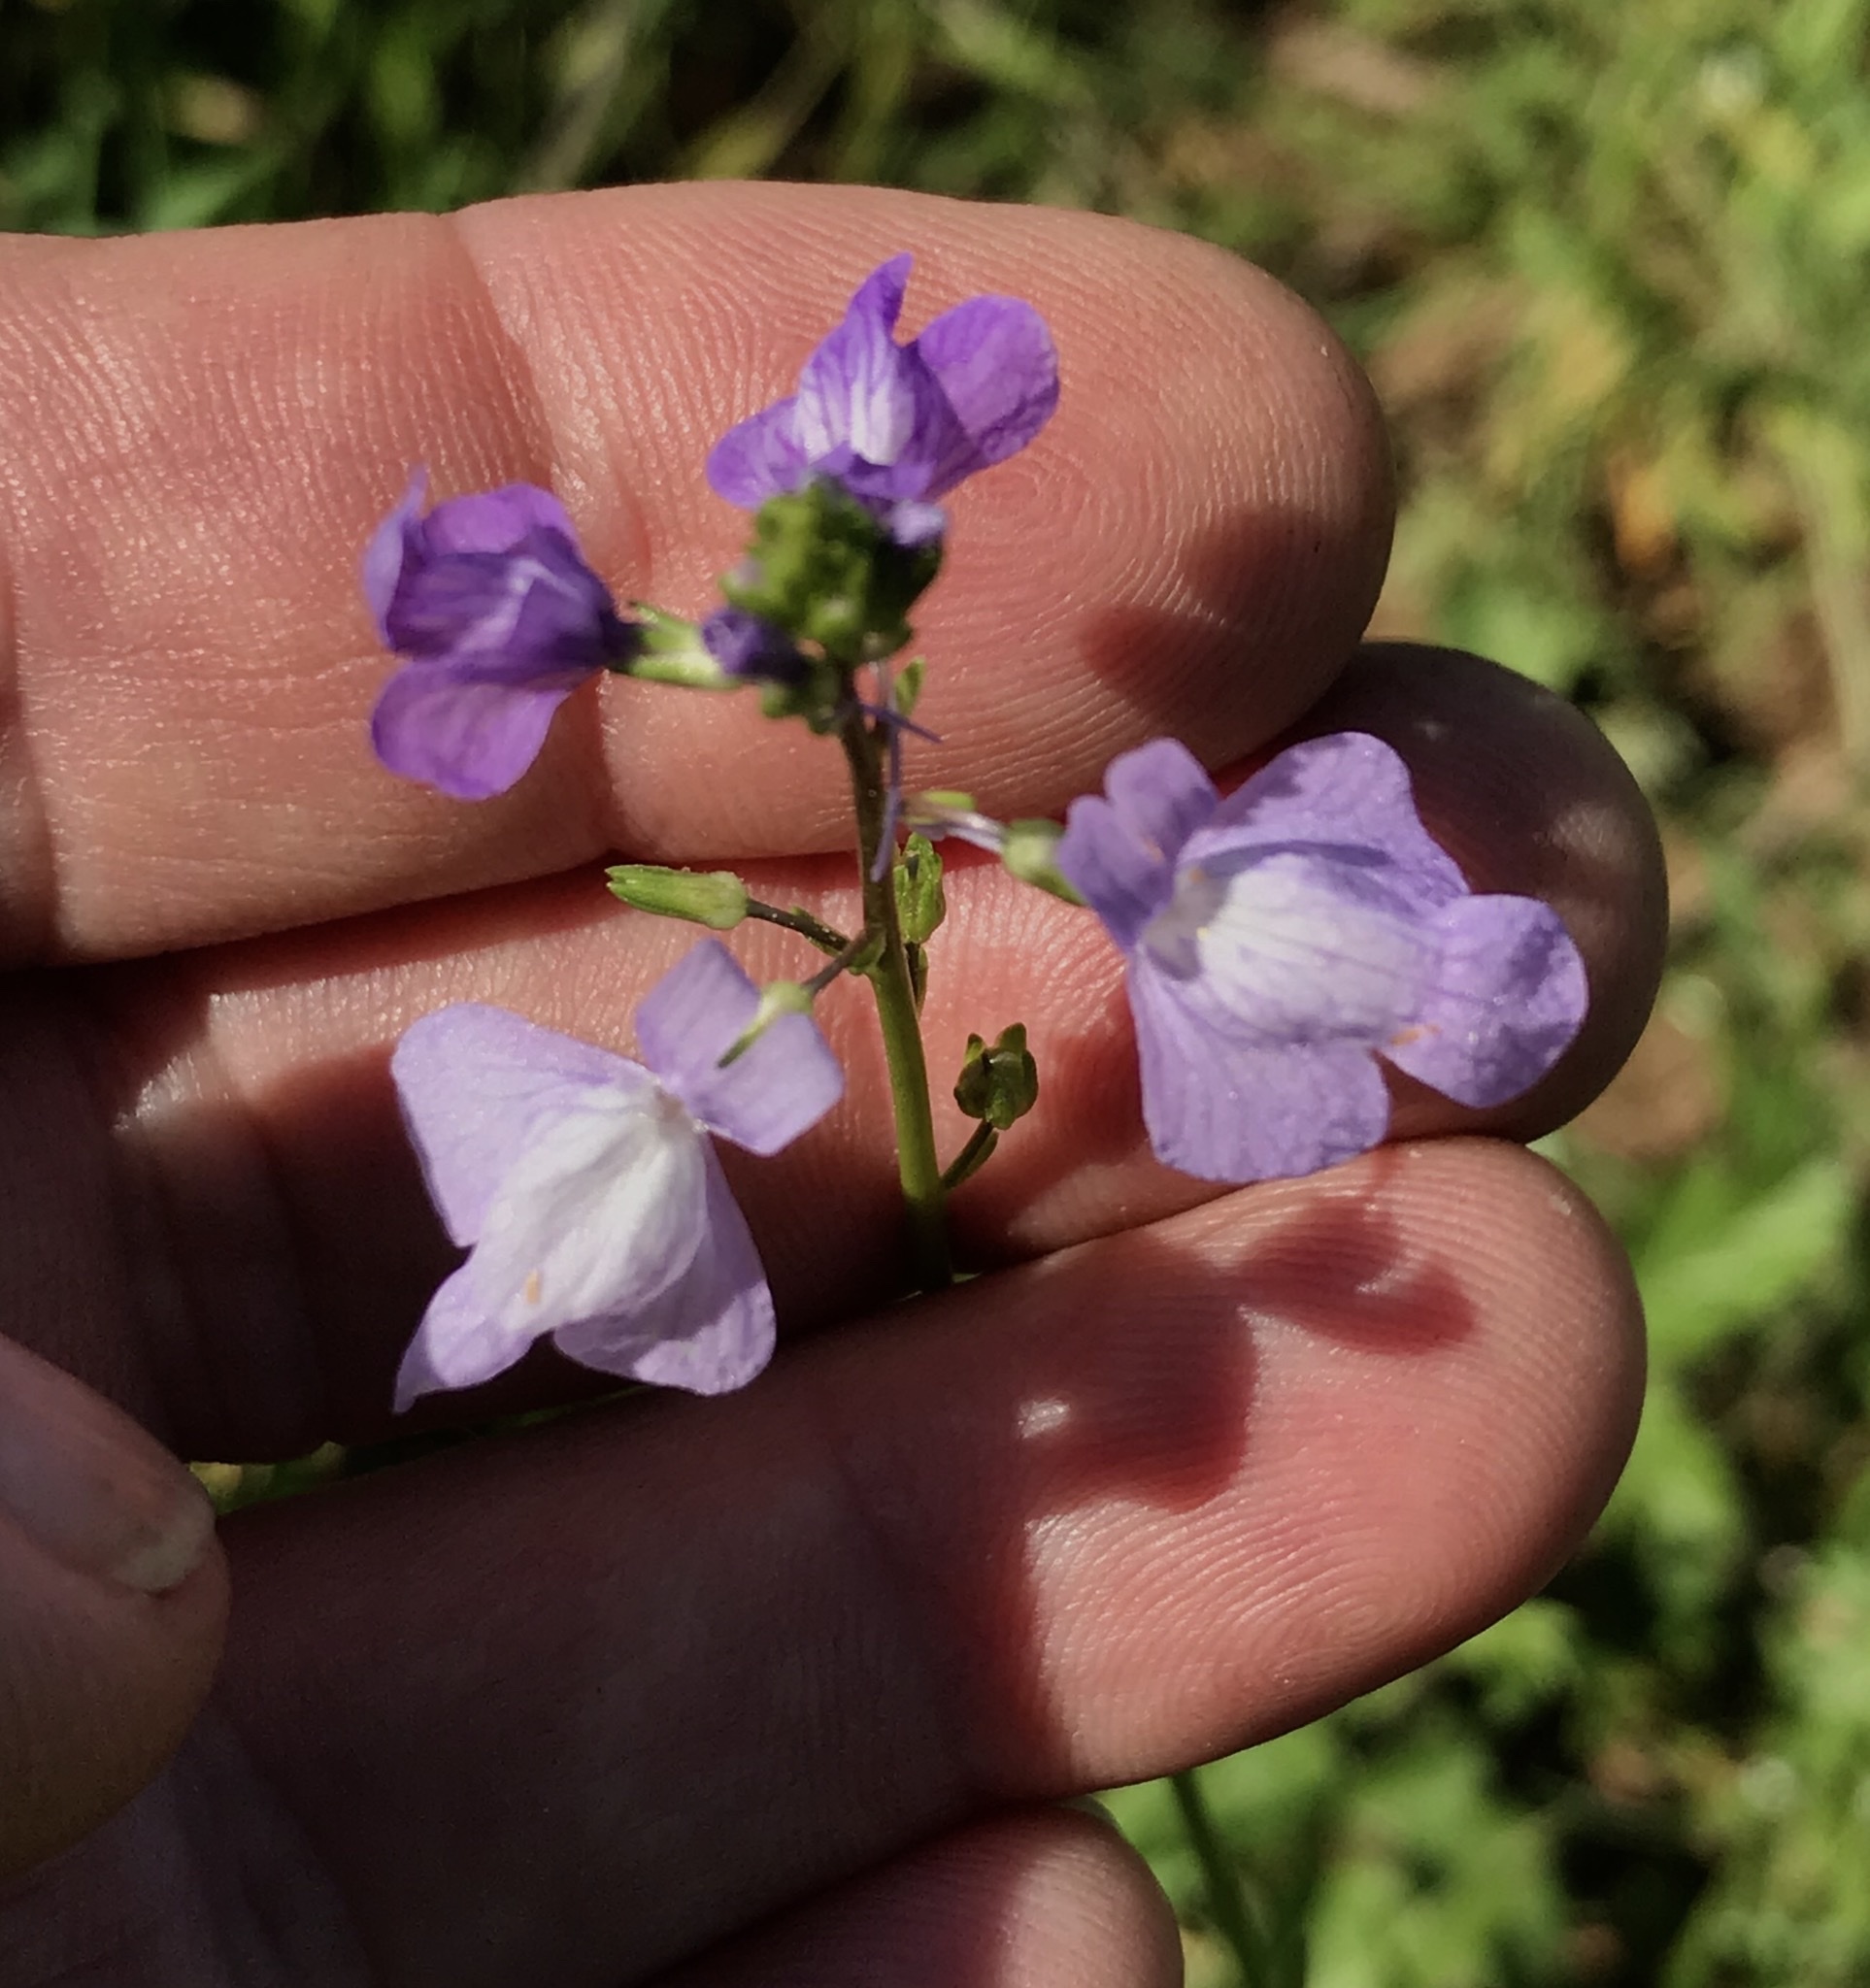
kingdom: Plantae
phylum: Tracheophyta
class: Magnoliopsida
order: Lamiales
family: Plantaginaceae
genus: Nuttallanthus
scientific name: Nuttallanthus texanus
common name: Texas toadflax
